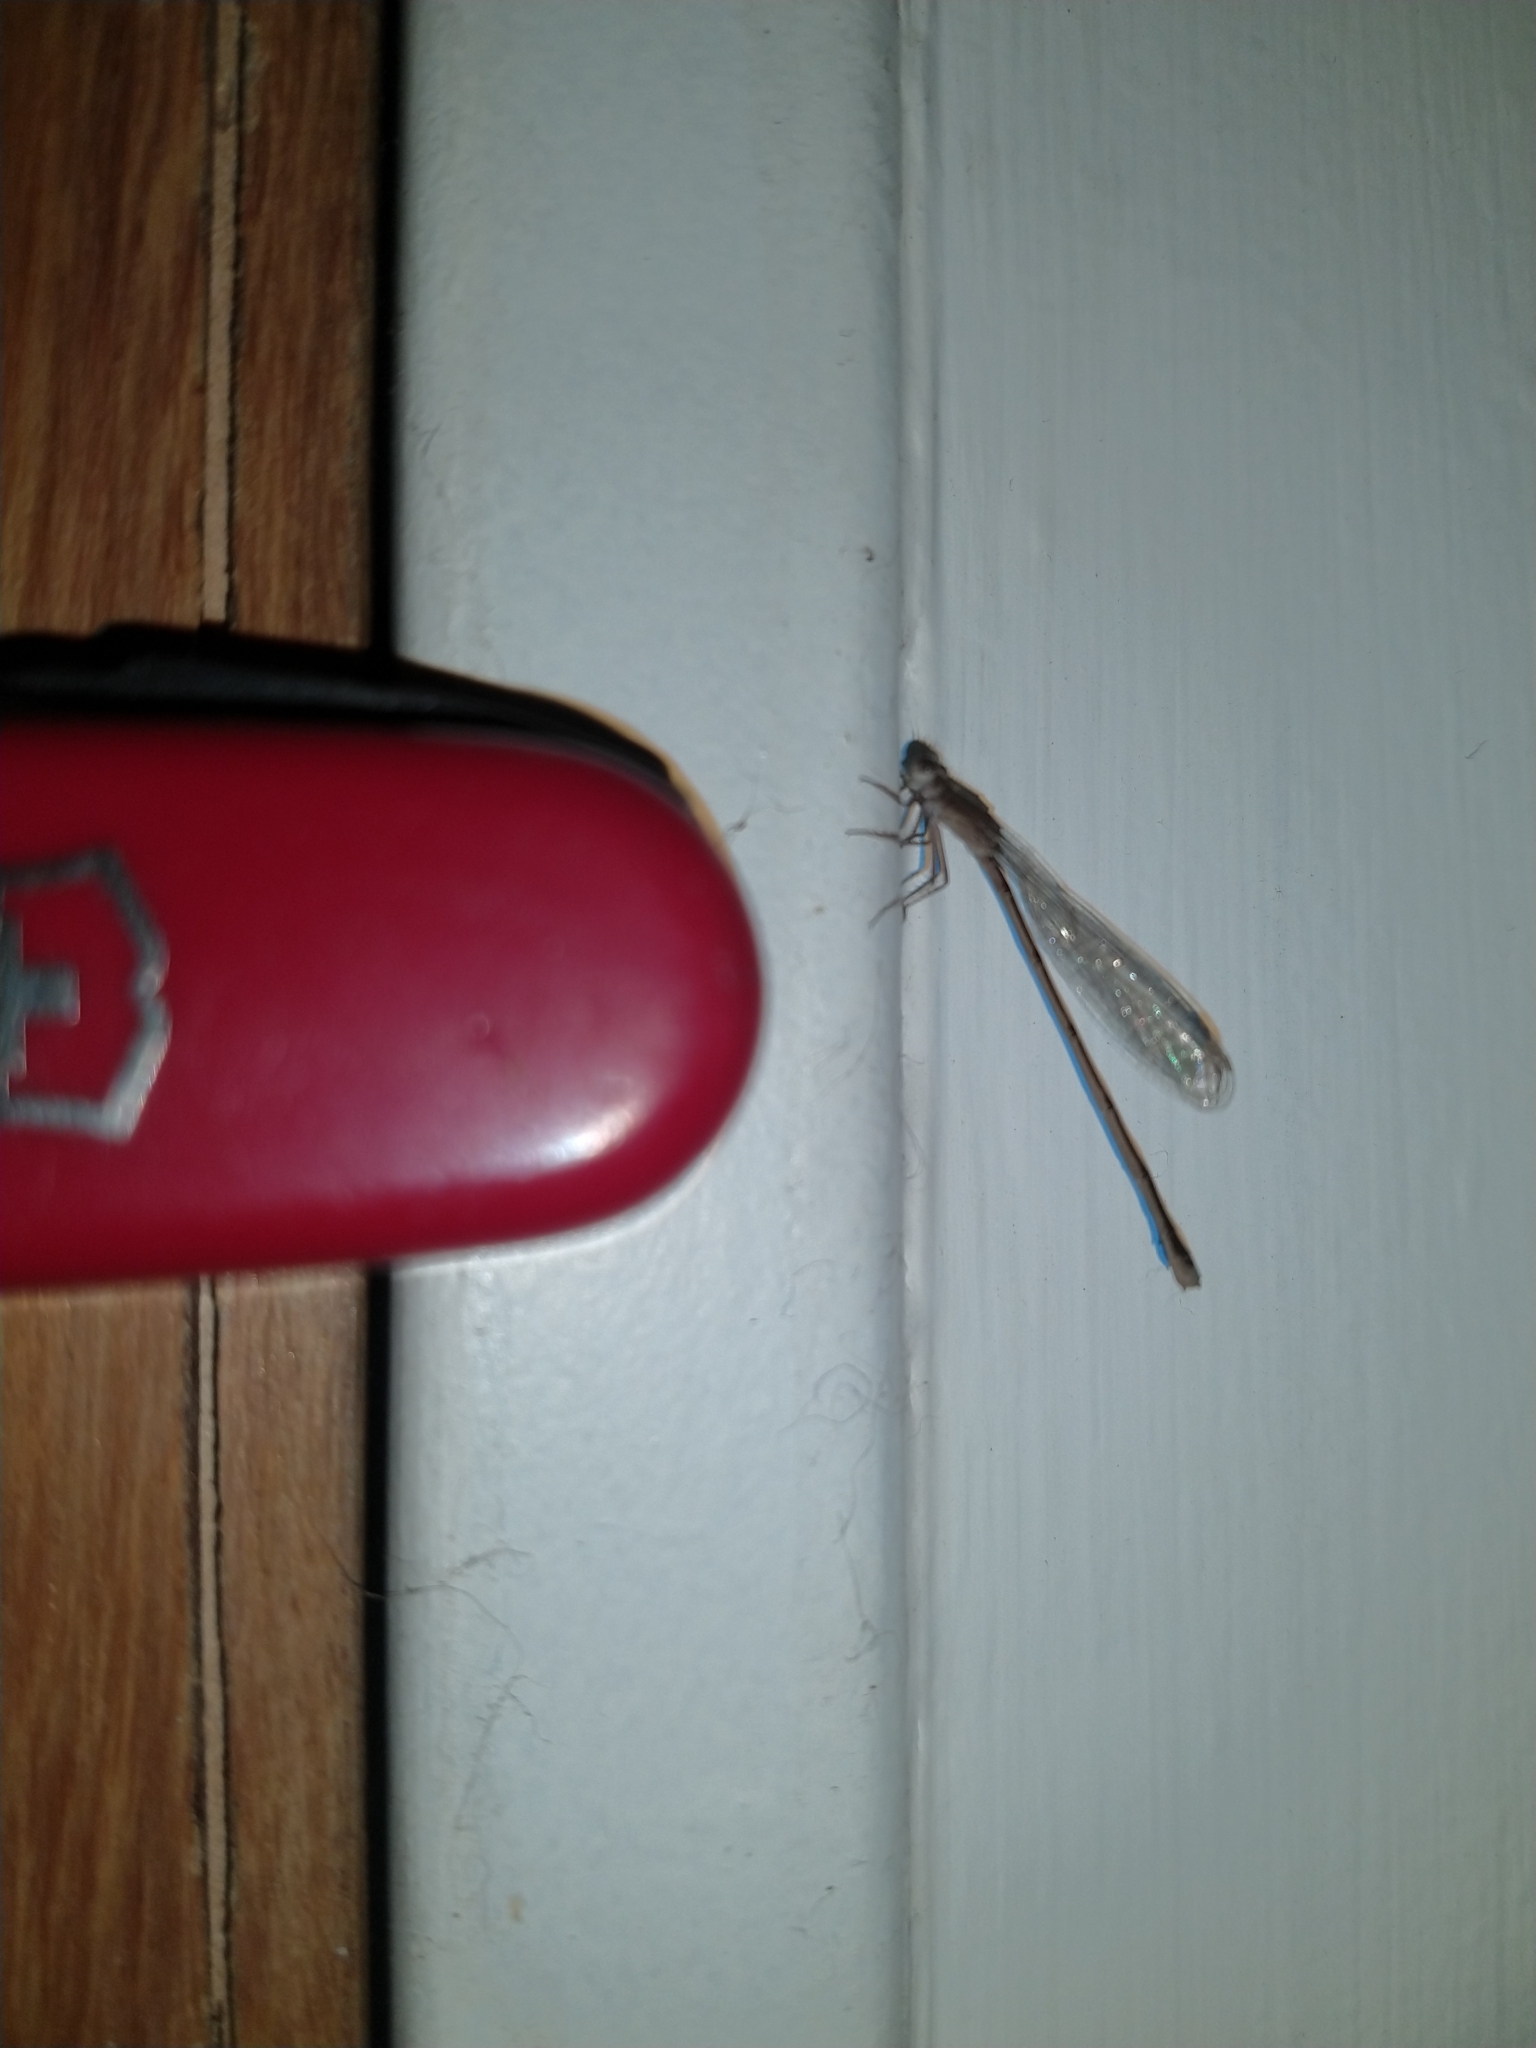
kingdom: Animalia
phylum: Arthropoda
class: Insecta
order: Odonata
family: Coenagrionidae
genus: Argentagrion
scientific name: Argentagrion ambiguum
